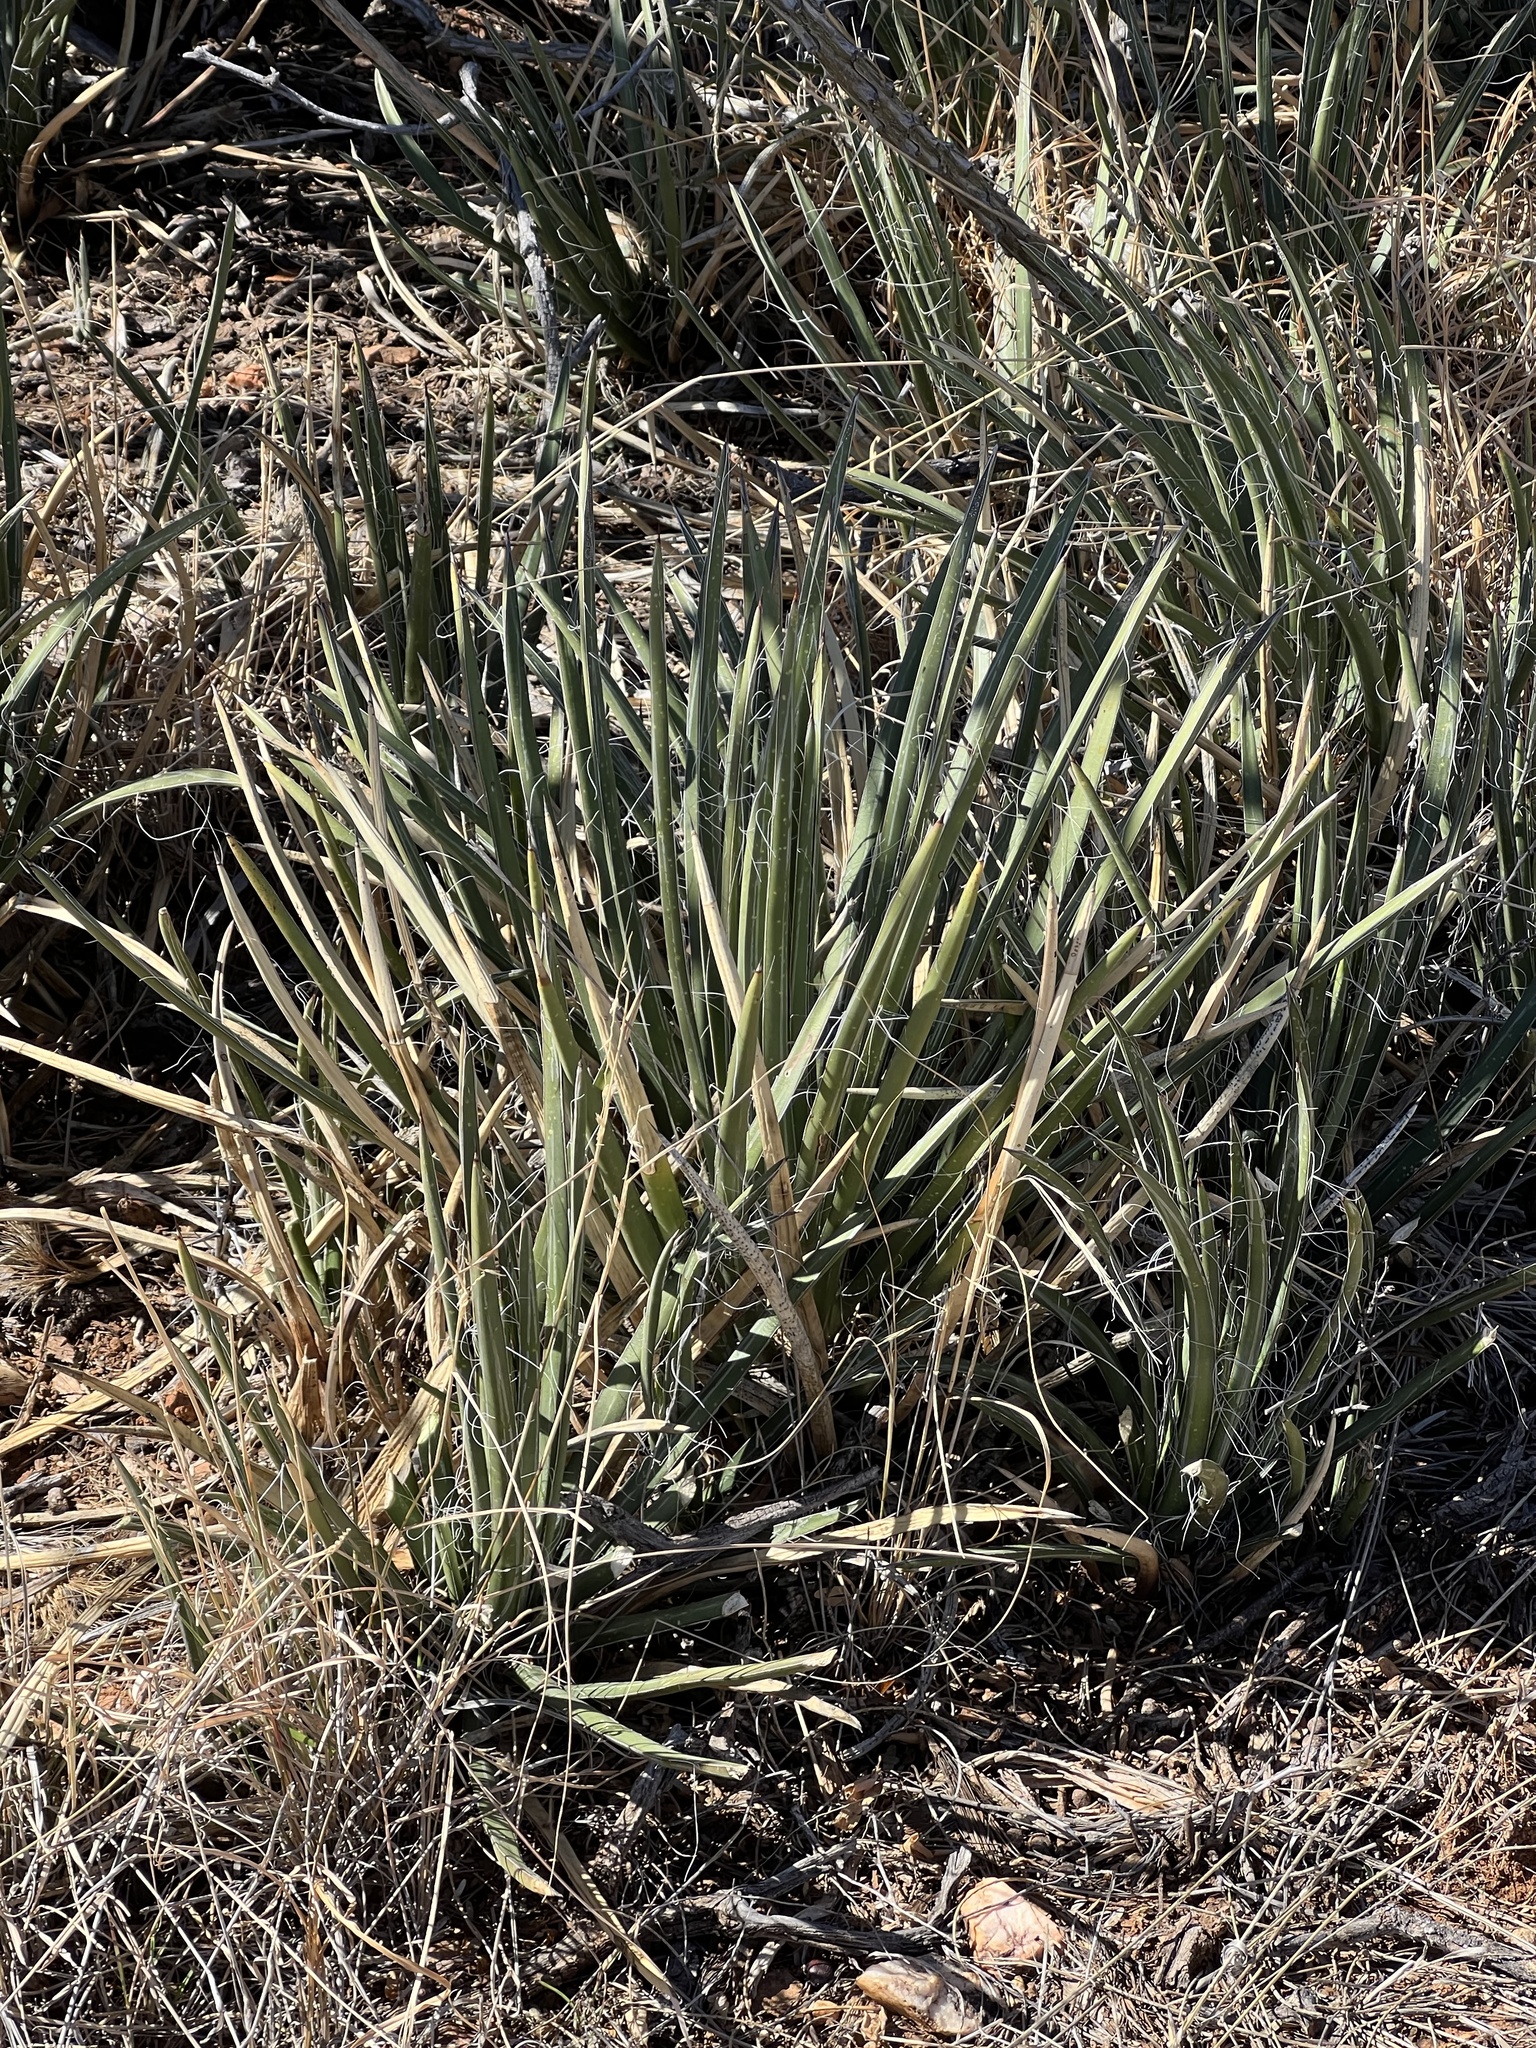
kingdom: Plantae
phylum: Tracheophyta
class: Liliopsida
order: Asparagales
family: Asparagaceae
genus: Agave
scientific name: Agave schottii
